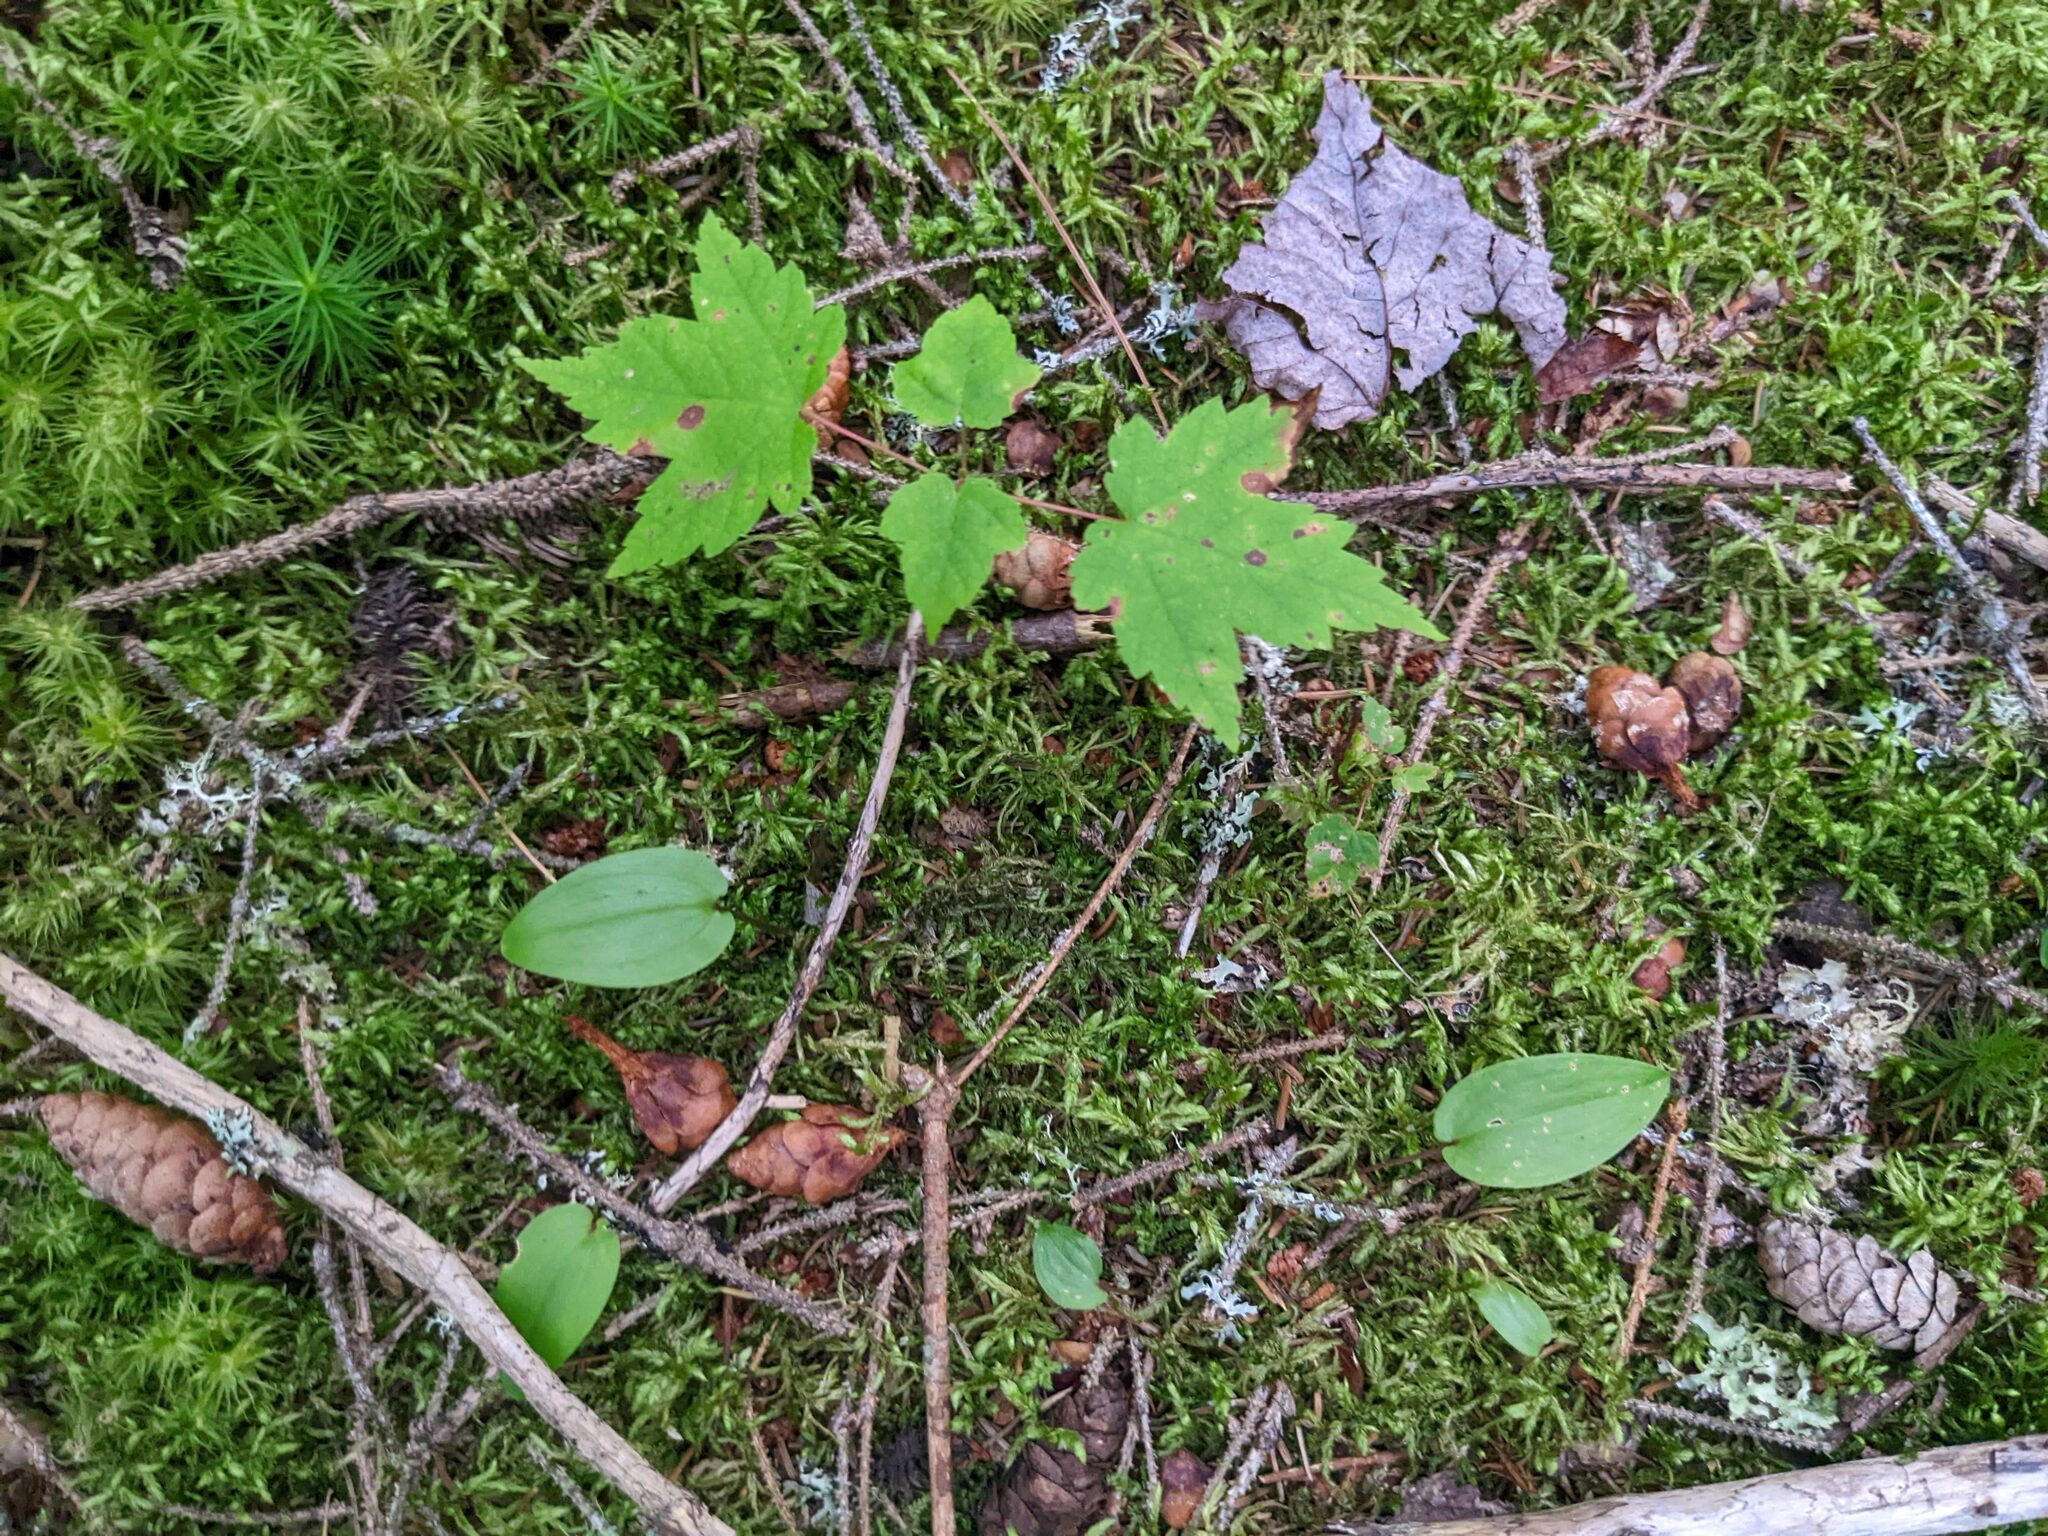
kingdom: Plantae
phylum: Tracheophyta
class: Liliopsida
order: Asparagales
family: Asparagaceae
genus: Maianthemum
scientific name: Maianthemum canadense
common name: False lily-of-the-valley
